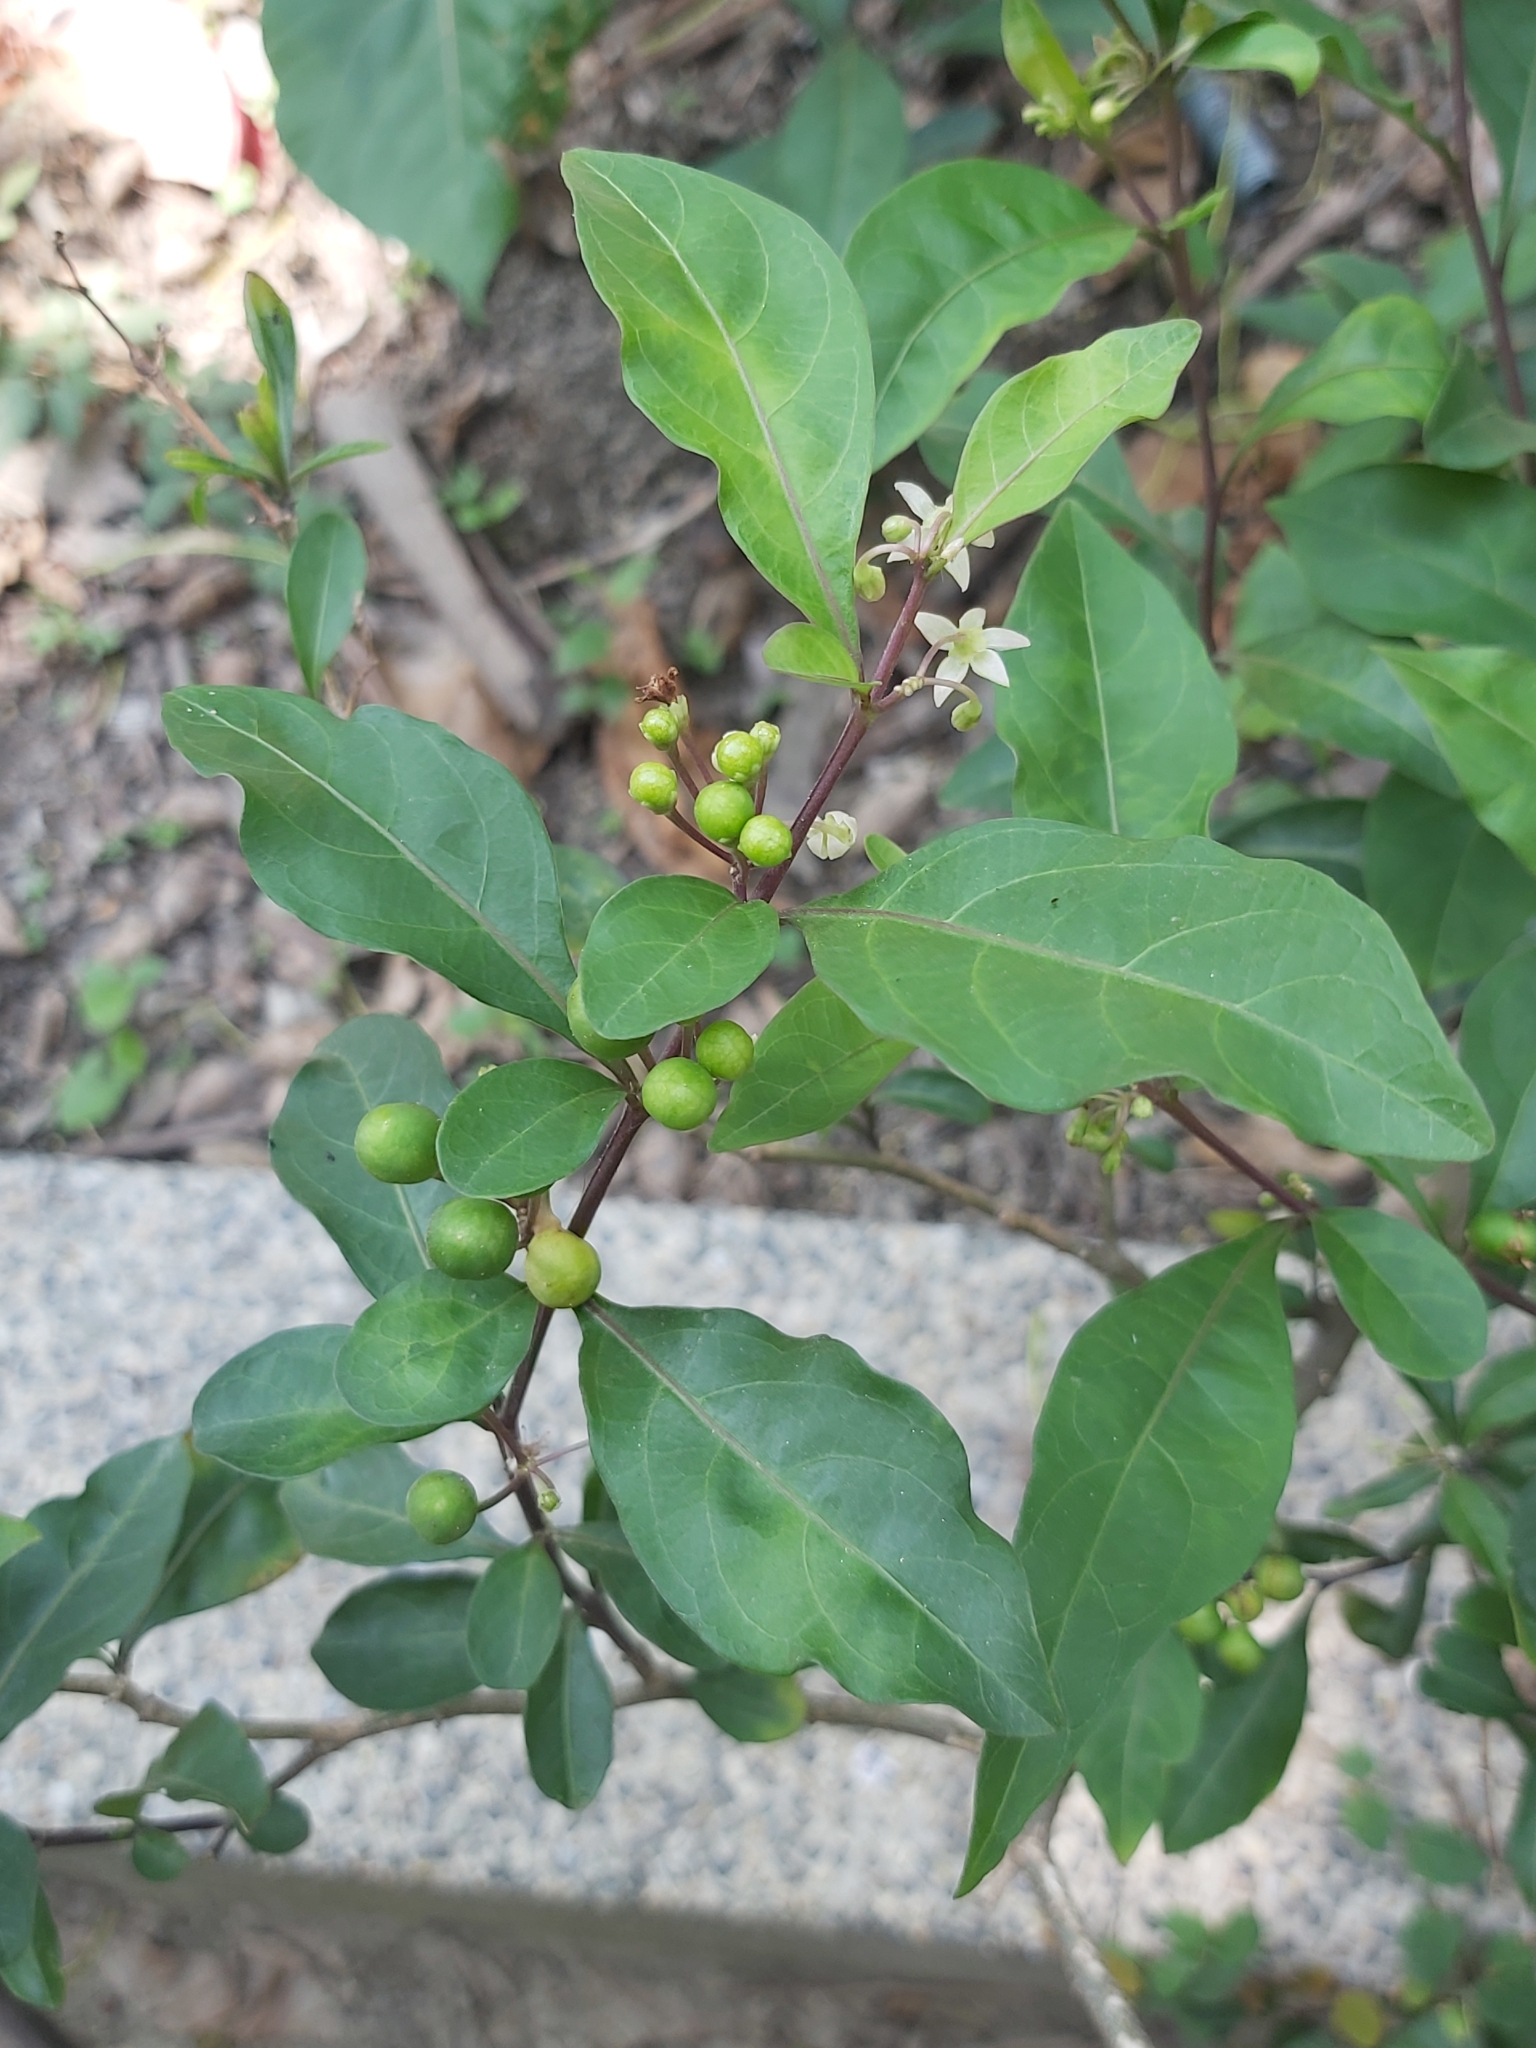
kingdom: Plantae
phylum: Tracheophyta
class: Magnoliopsida
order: Solanales
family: Solanaceae
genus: Solanum
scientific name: Solanum diphyllum
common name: Twoleaf nightshade
